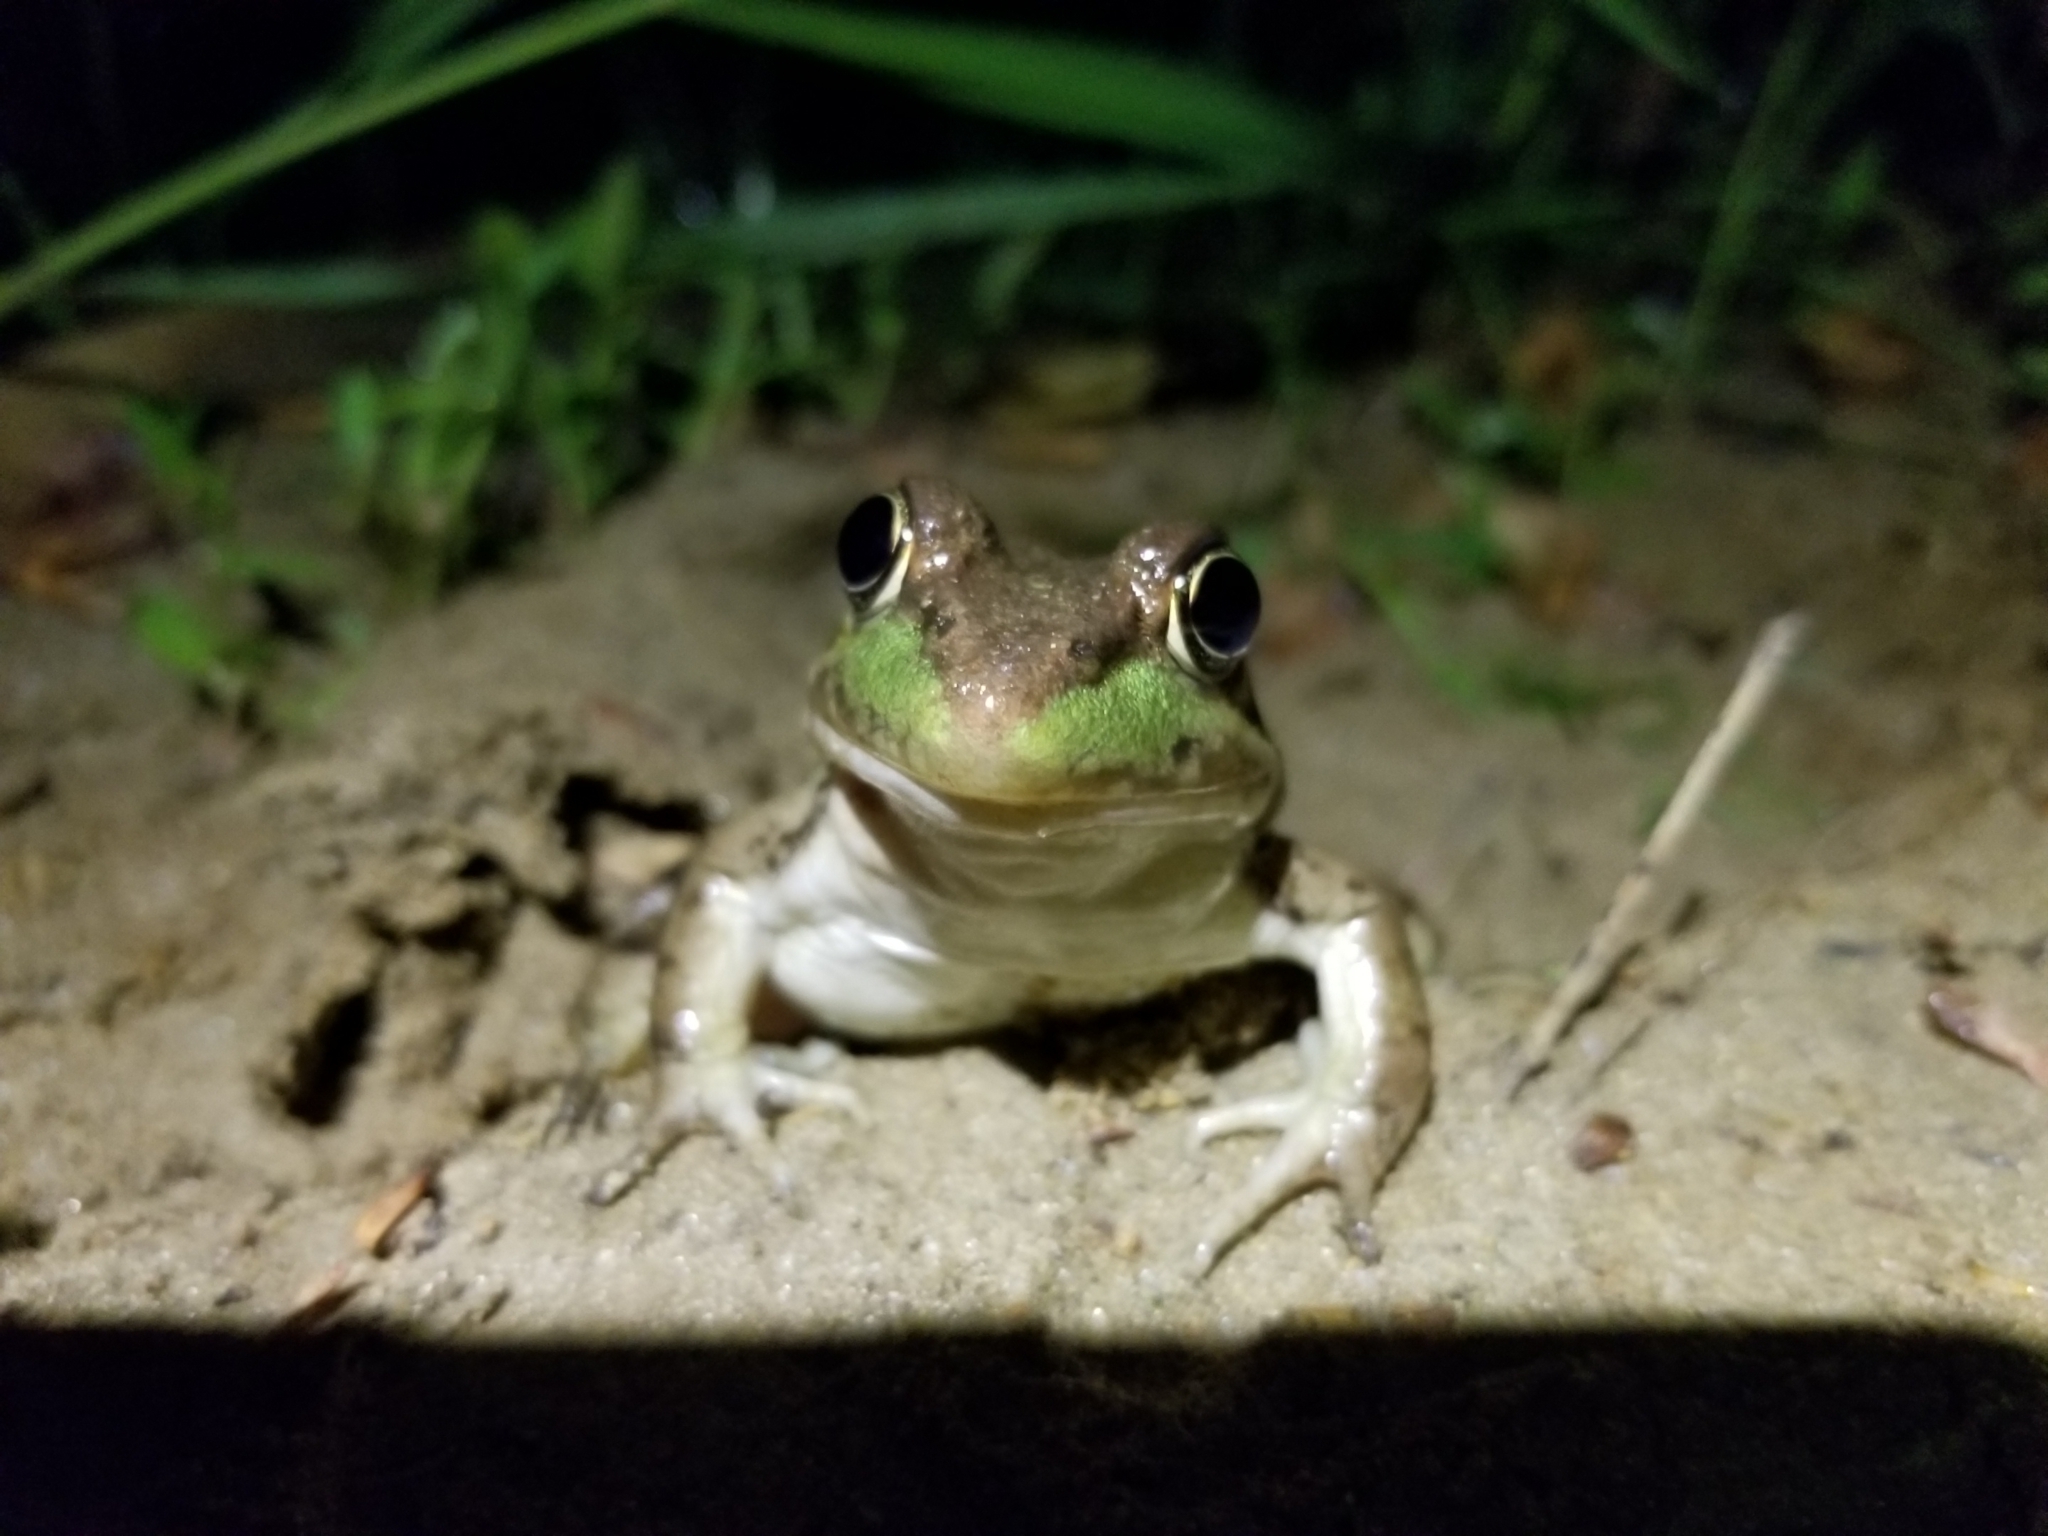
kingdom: Animalia
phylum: Chordata
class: Amphibia
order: Anura
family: Ranidae
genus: Lithobates
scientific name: Lithobates clamitans
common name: Green frog
